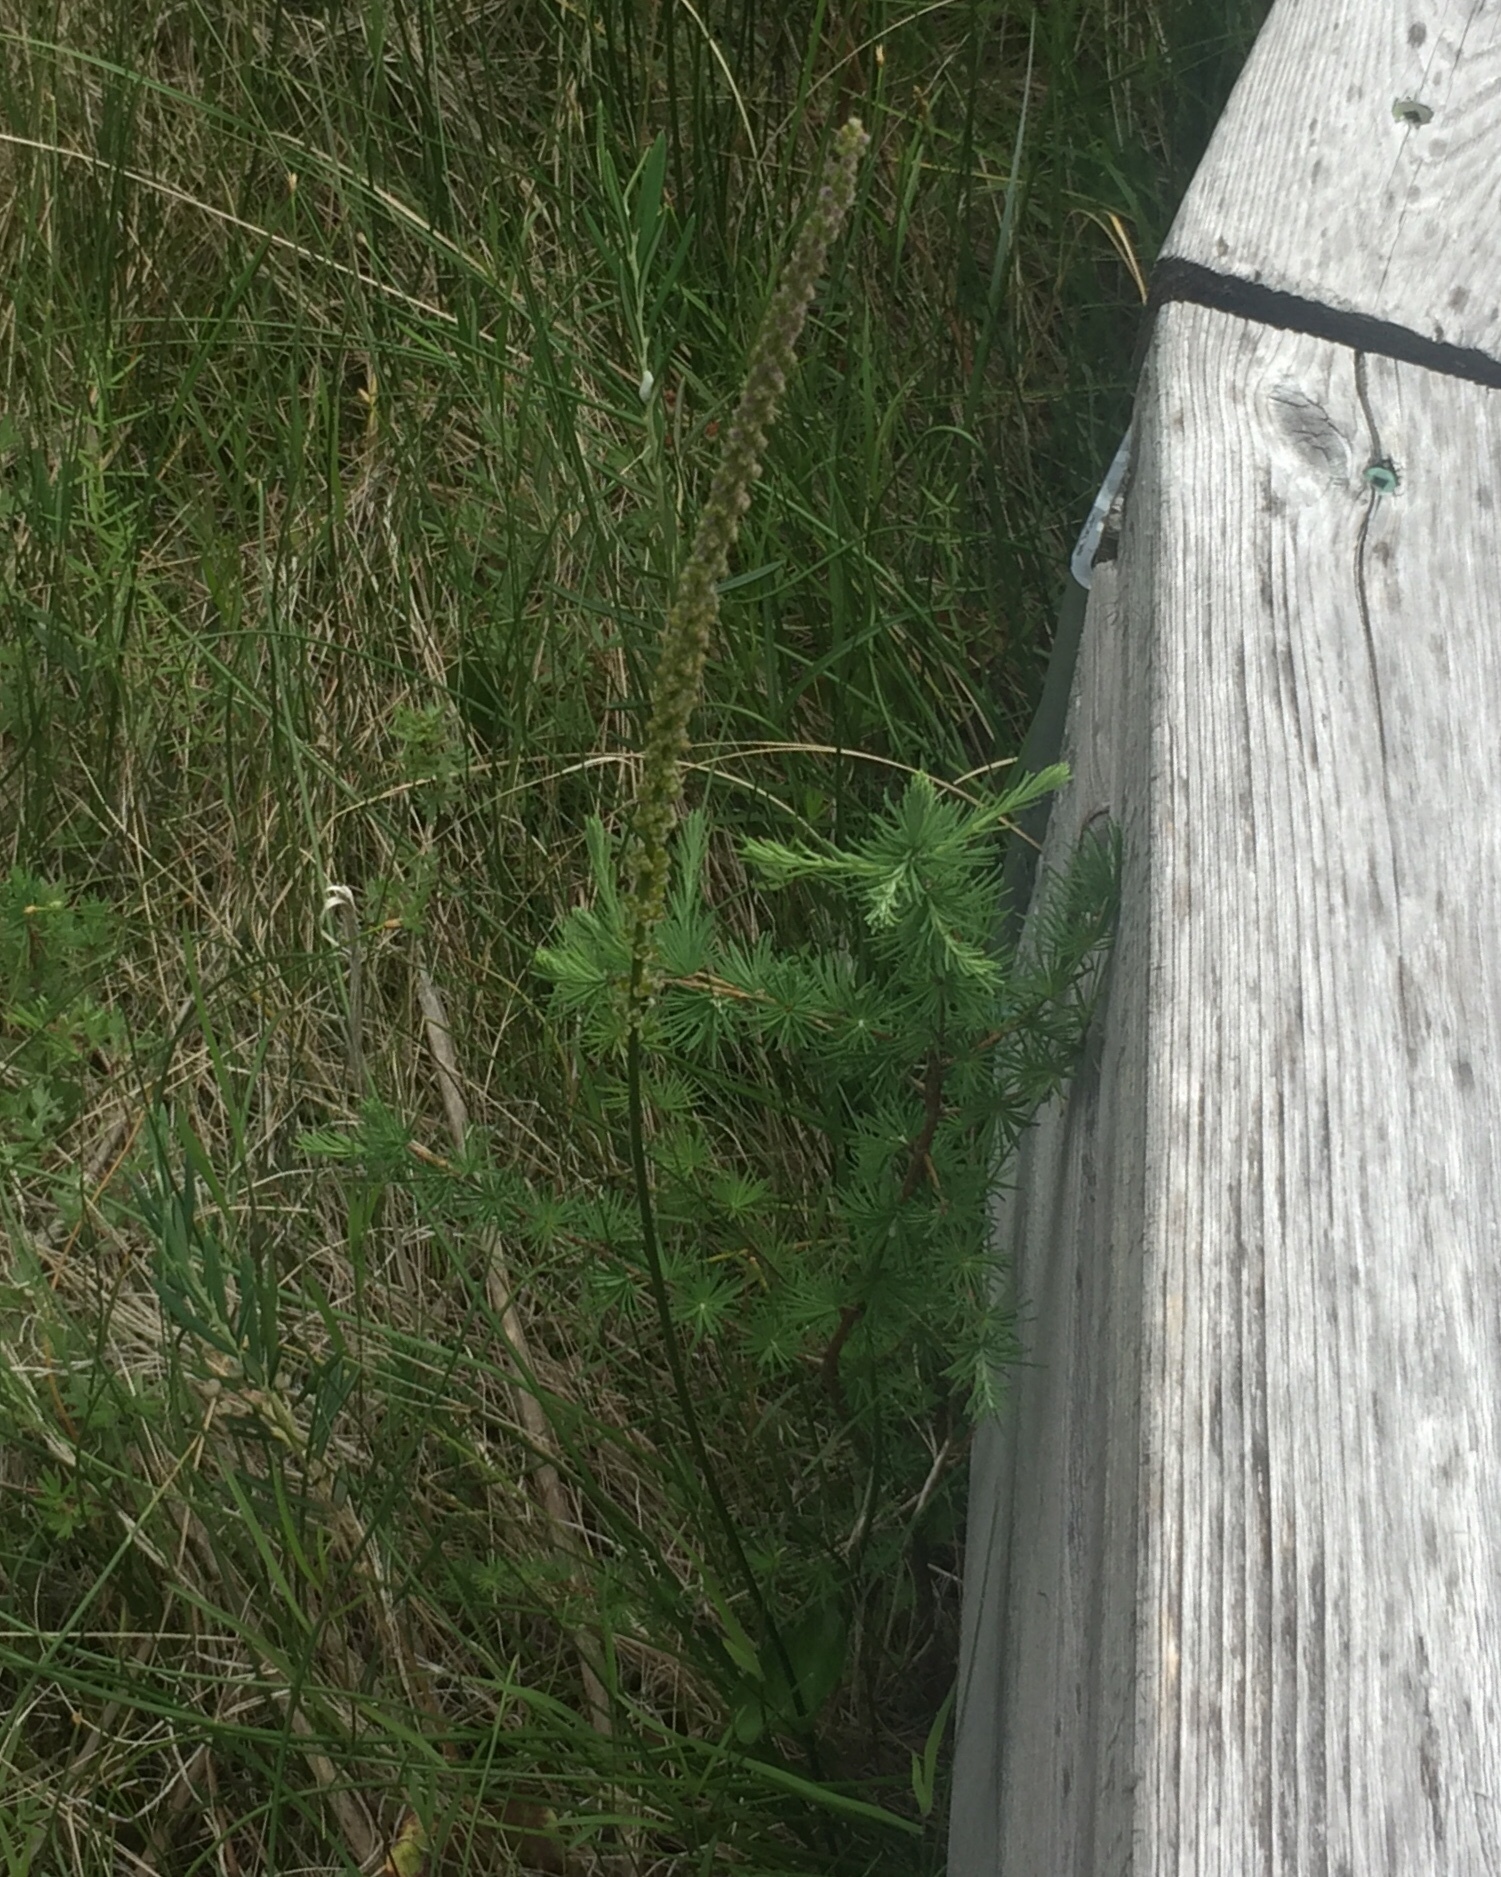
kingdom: Plantae
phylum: Tracheophyta
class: Liliopsida
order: Alismatales
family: Juncaginaceae
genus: Triglochin
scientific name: Triglochin maritima
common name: Sea arrowgrass
